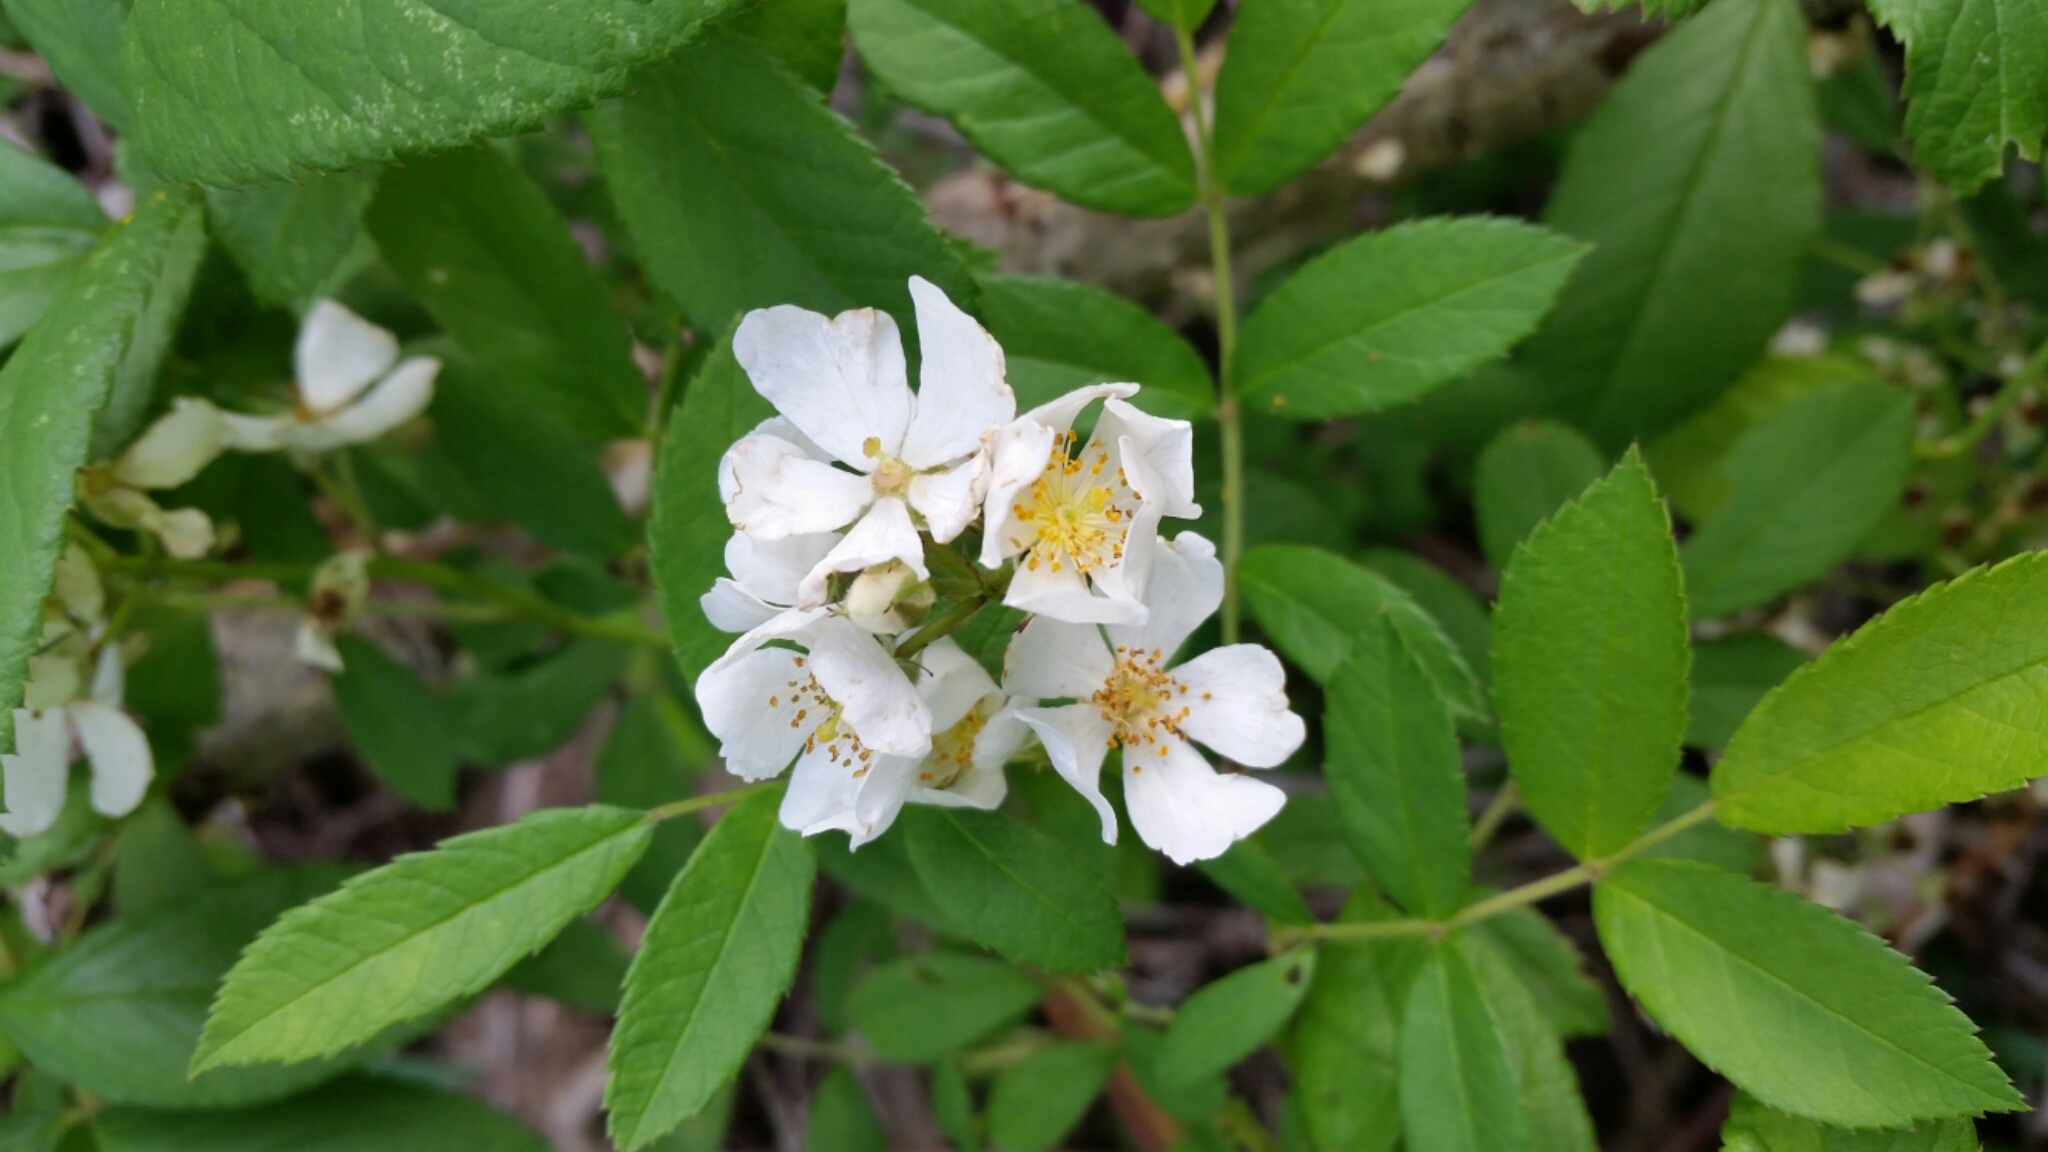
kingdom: Plantae
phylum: Tracheophyta
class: Magnoliopsida
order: Rosales
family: Rosaceae
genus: Rosa
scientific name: Rosa multiflora
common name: Multiflora rose
